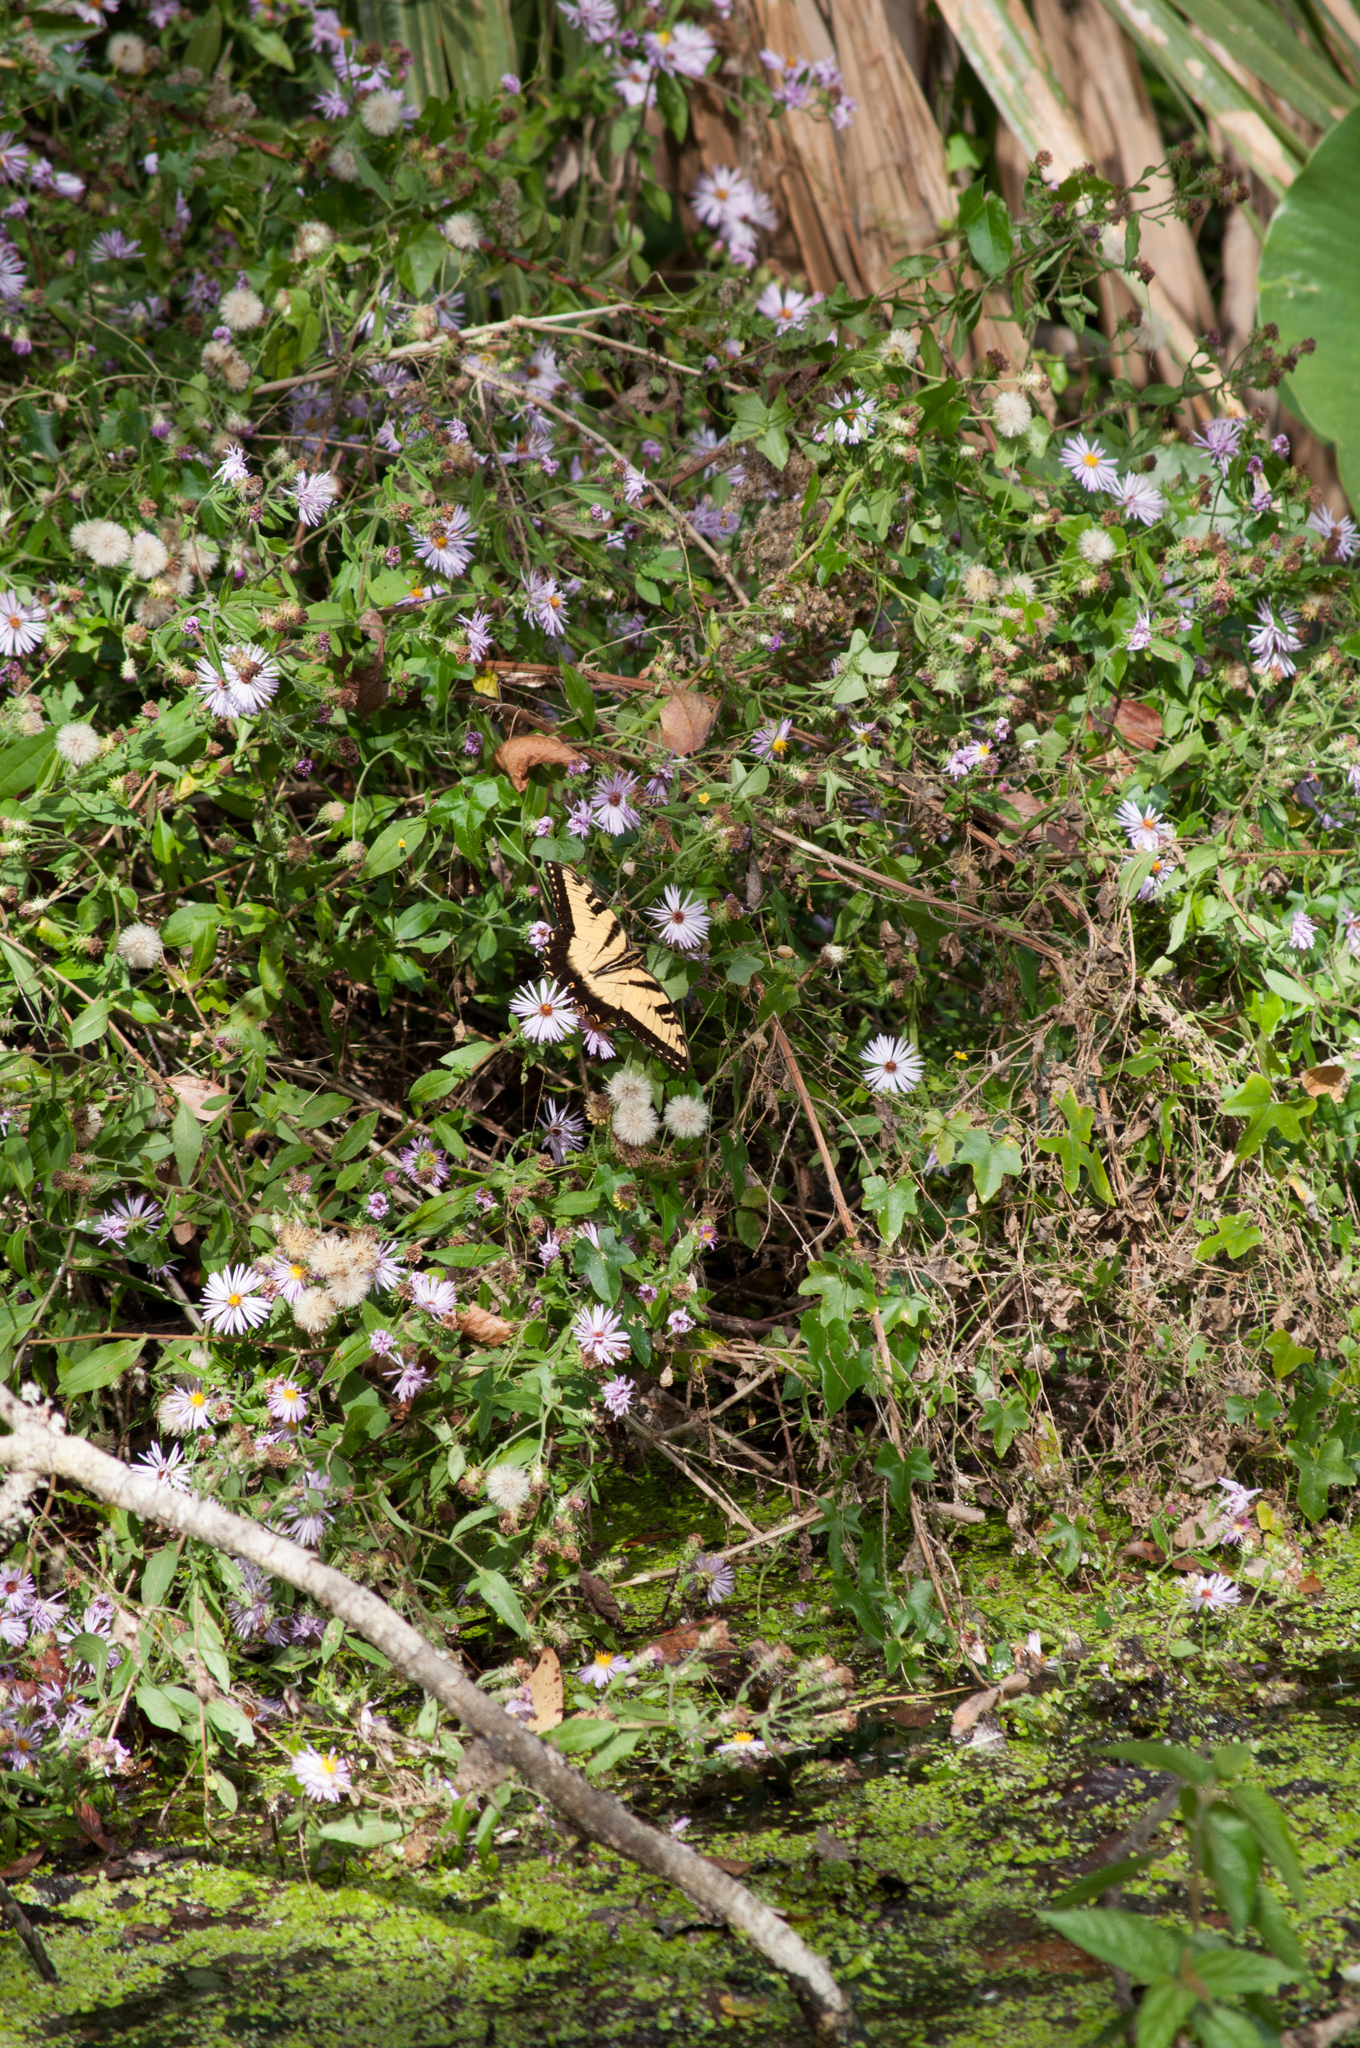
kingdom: Animalia
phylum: Arthropoda
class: Insecta
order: Lepidoptera
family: Papilionidae
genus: Papilio
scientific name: Papilio glaucus
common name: Tiger swallowtail
